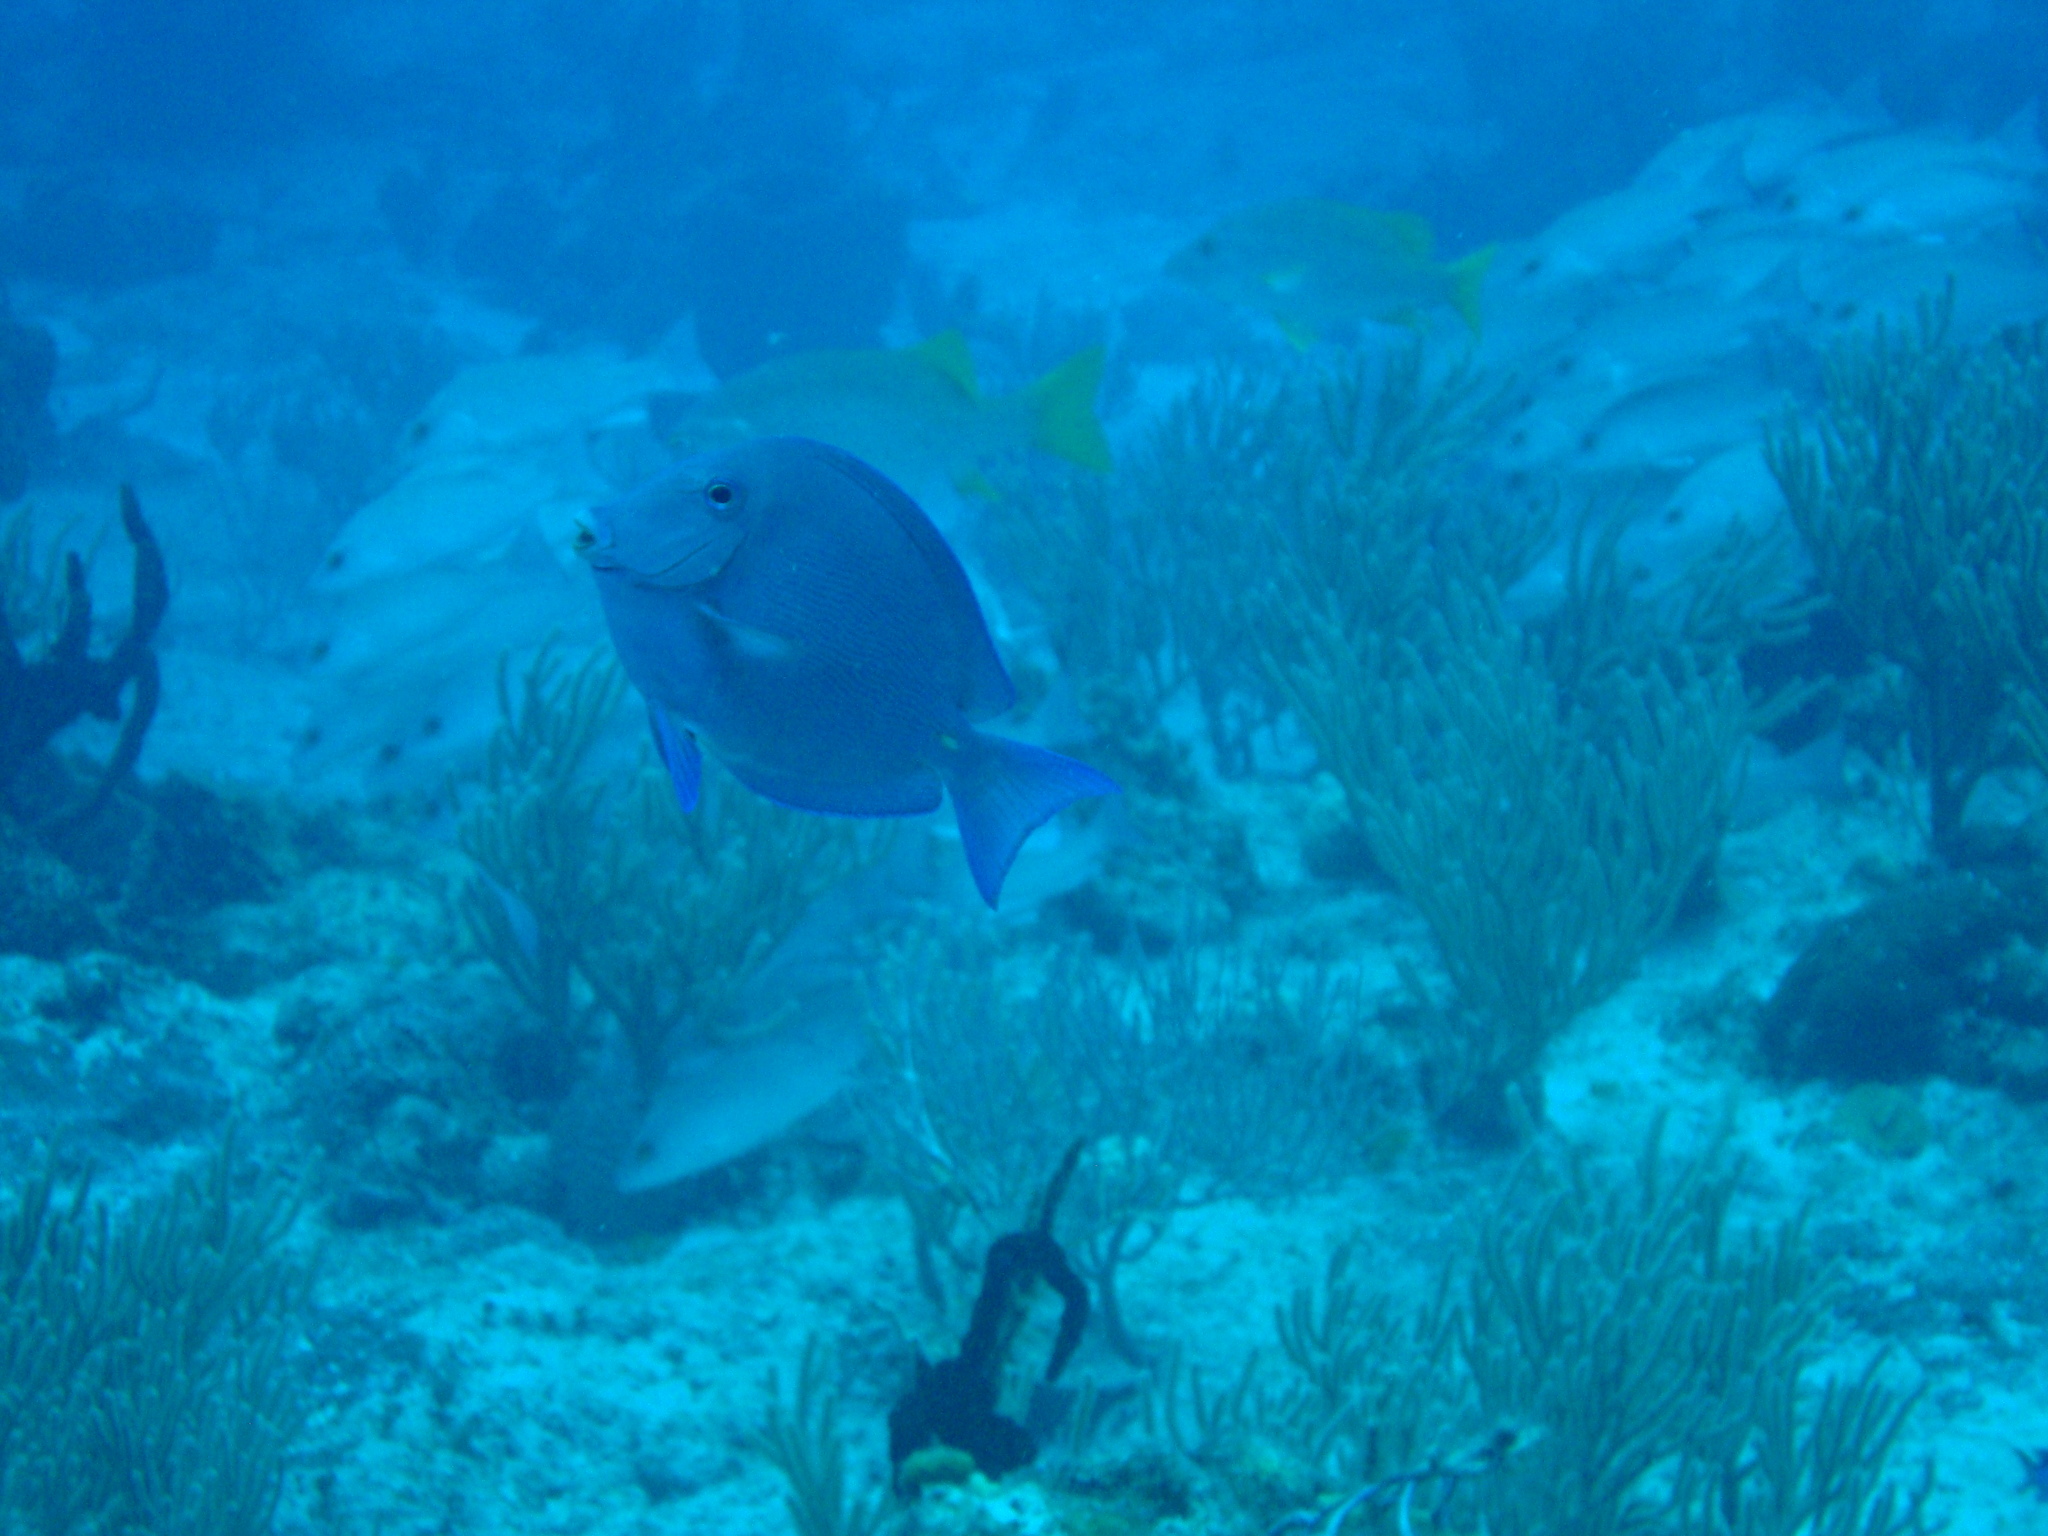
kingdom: Animalia
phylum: Chordata
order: Perciformes
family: Acanthuridae
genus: Acanthurus
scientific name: Acanthurus coeruleus
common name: Blue tang
